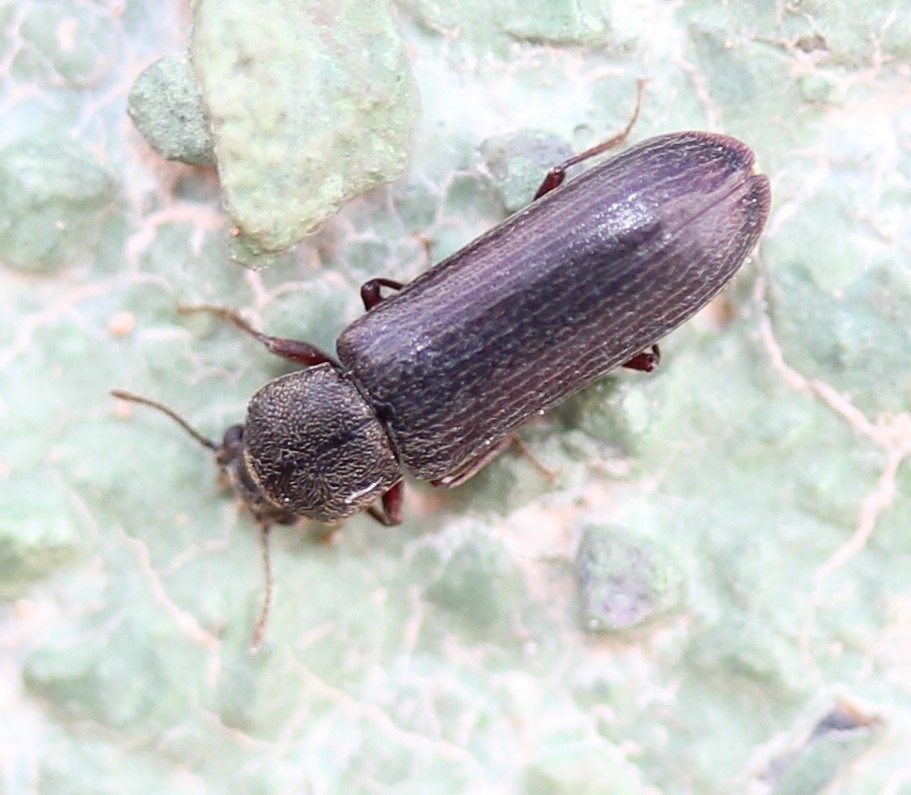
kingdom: Animalia
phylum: Arthropoda
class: Insecta
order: Coleoptera
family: Bostrichidae
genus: Lyctus
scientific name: Lyctus carbonarius
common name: Powderpost beetle
